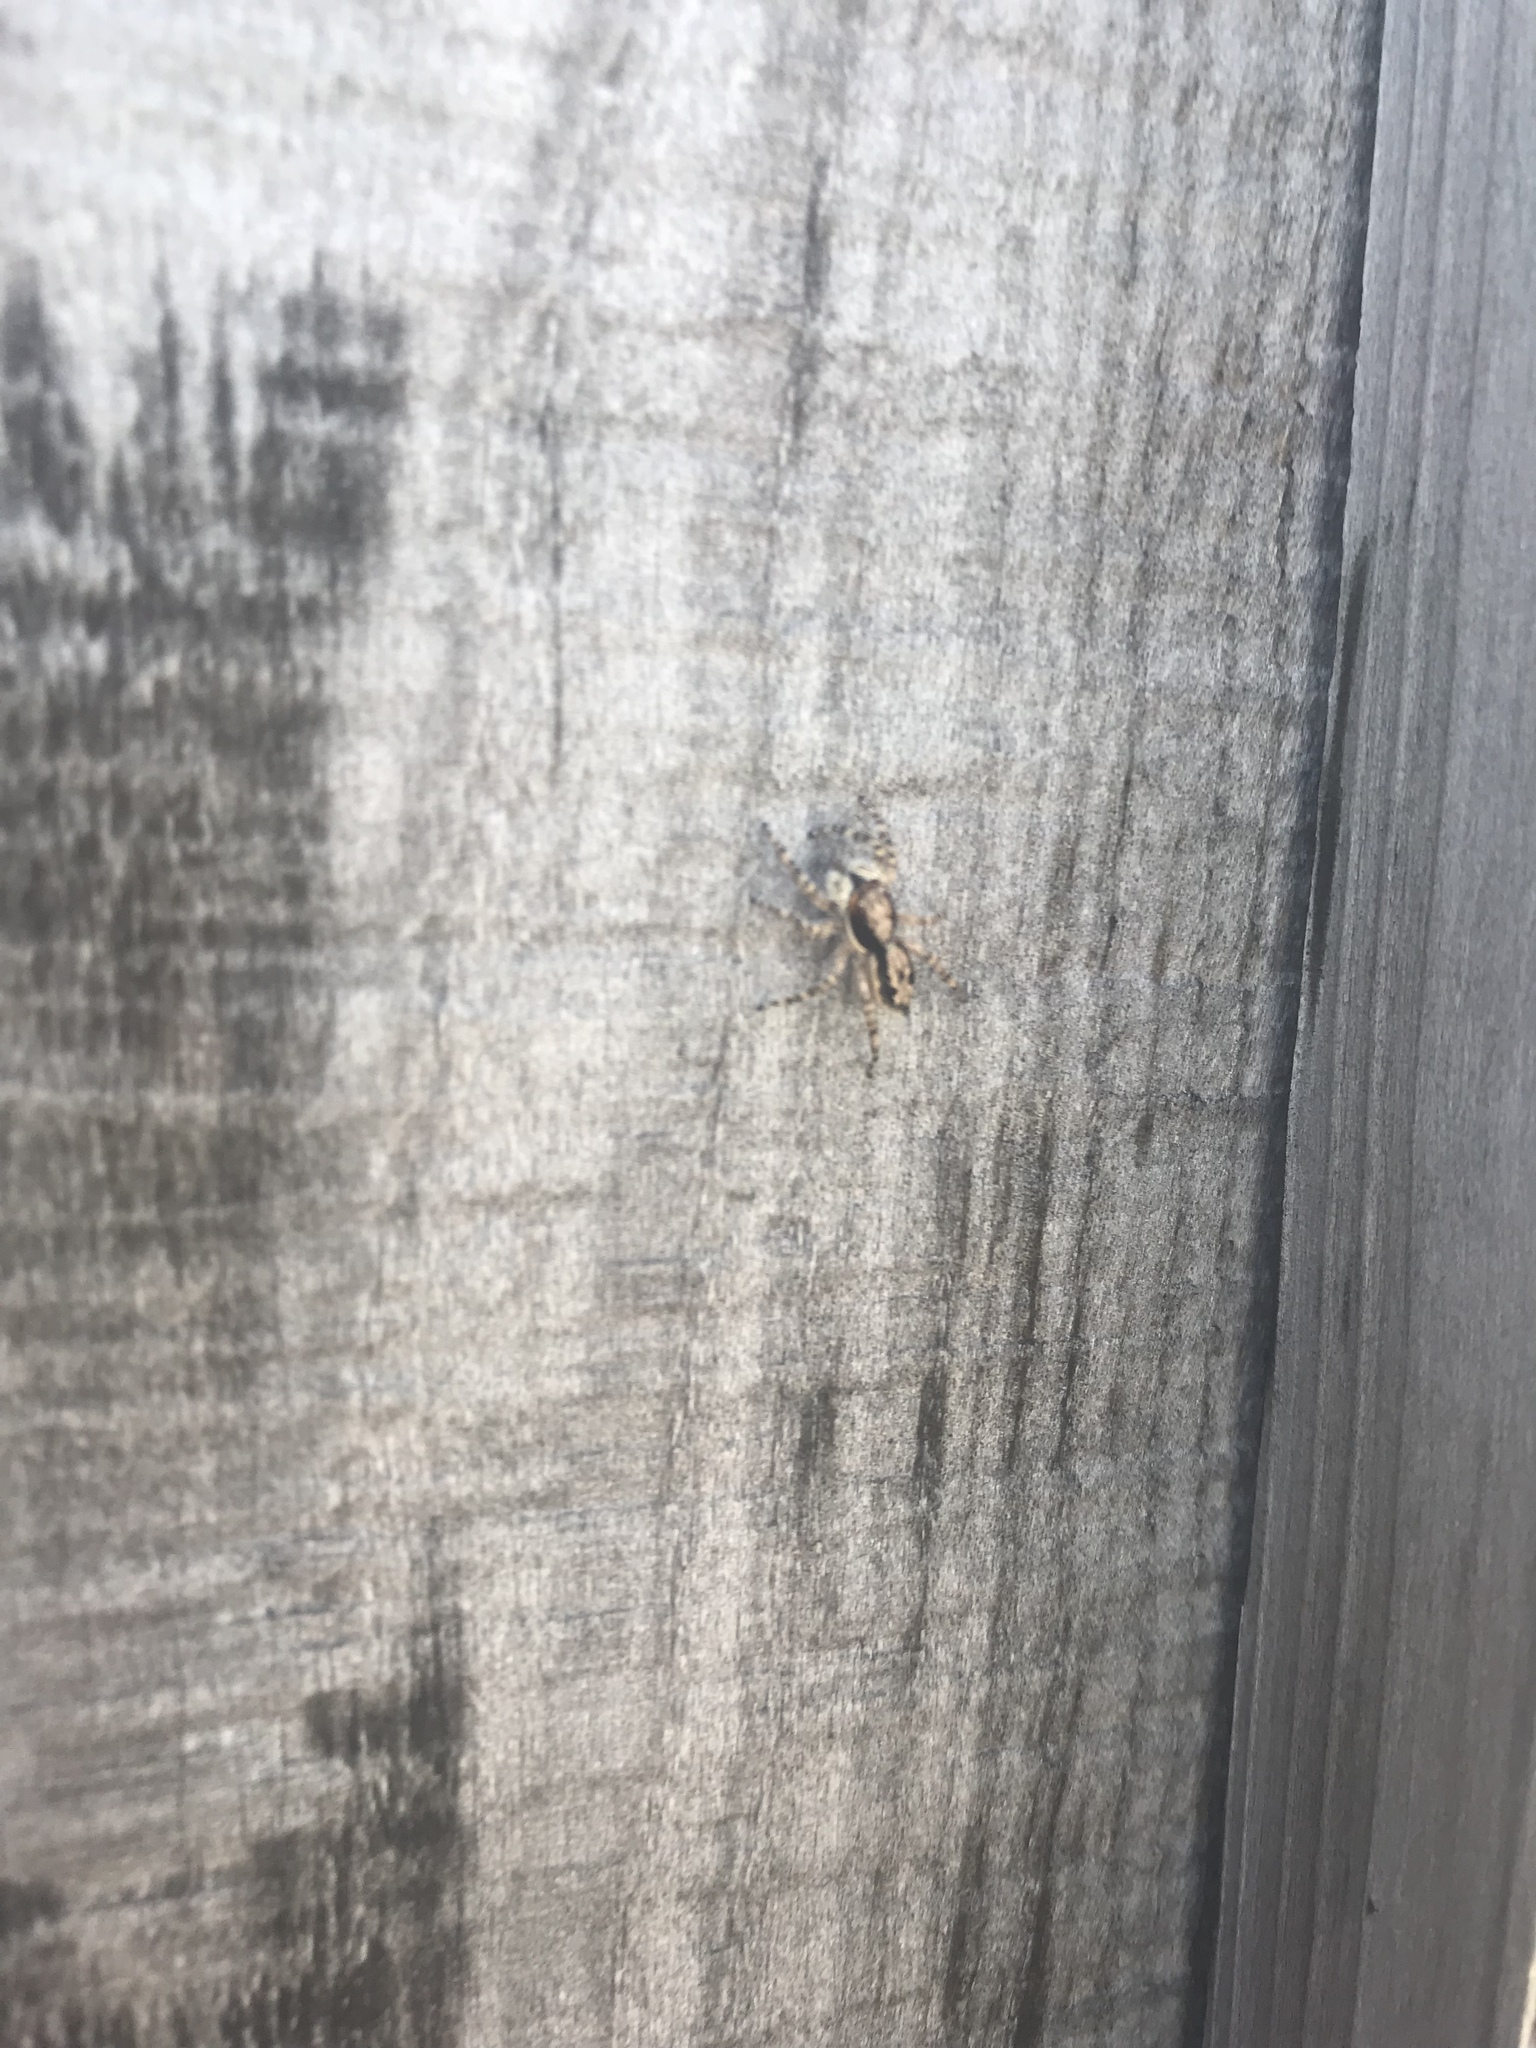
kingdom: Animalia
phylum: Arthropoda
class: Arachnida
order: Araneae
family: Salticidae
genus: Menemerus
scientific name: Menemerus bivittatus
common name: Gray wall jumper
